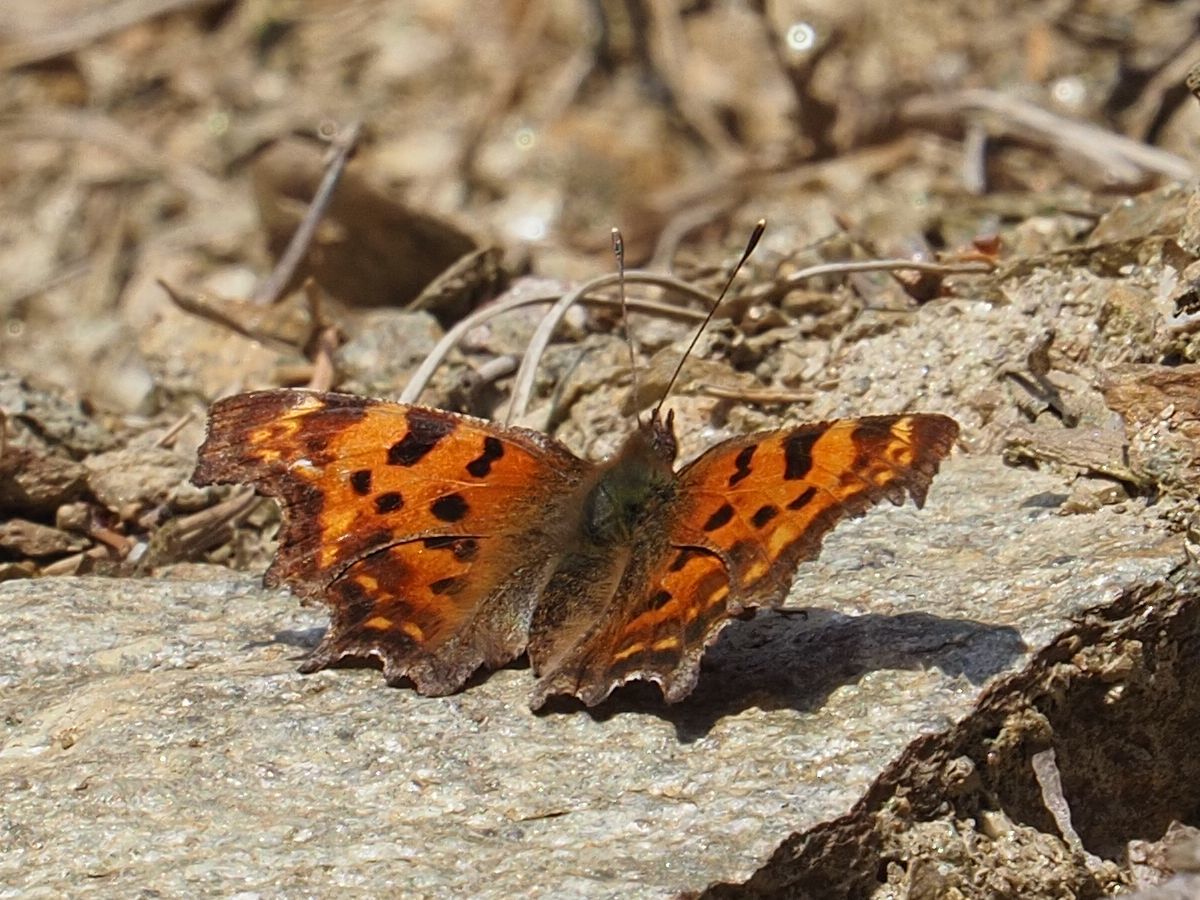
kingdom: Animalia
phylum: Arthropoda
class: Insecta
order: Lepidoptera
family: Nymphalidae
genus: Polygonia
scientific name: Polygonia c-album
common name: Comma
